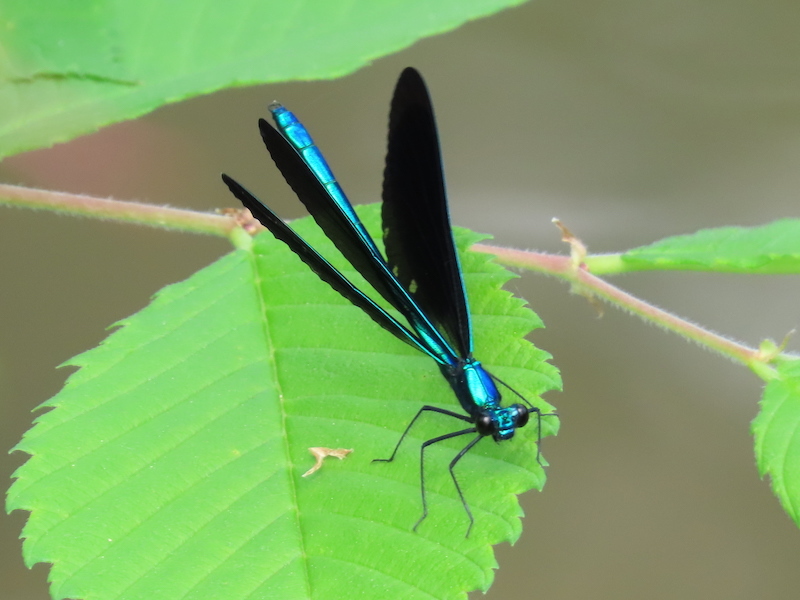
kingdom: Animalia
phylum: Arthropoda
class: Insecta
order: Odonata
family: Calopterygidae
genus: Calopteryx
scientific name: Calopteryx maculata
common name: Ebony jewelwing
